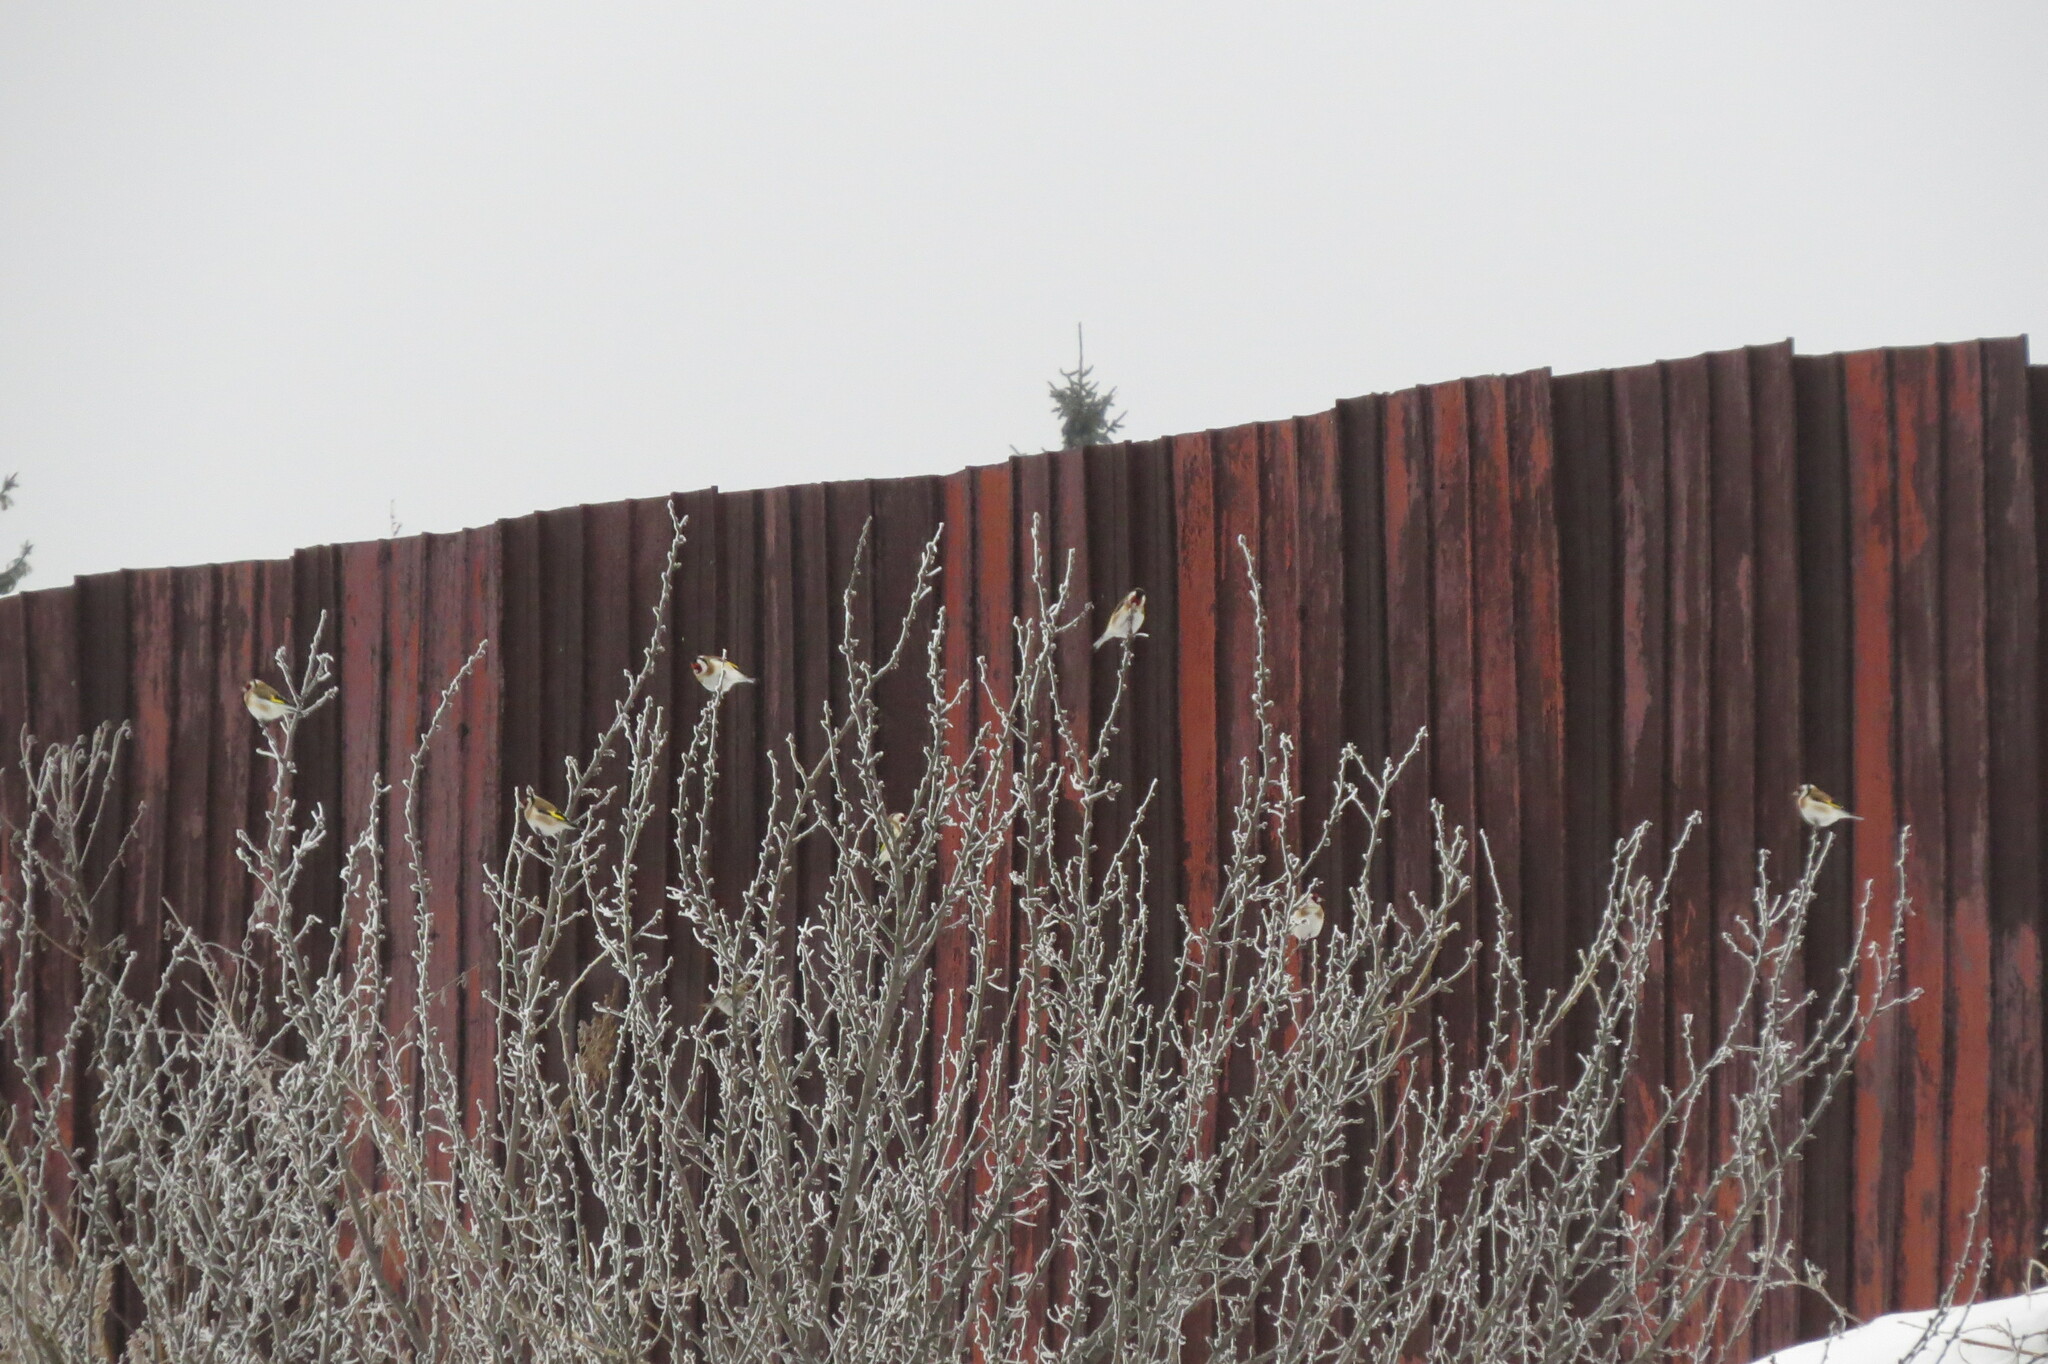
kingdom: Animalia
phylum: Chordata
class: Aves
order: Passeriformes
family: Fringillidae
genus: Carduelis
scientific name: Carduelis carduelis
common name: European goldfinch
